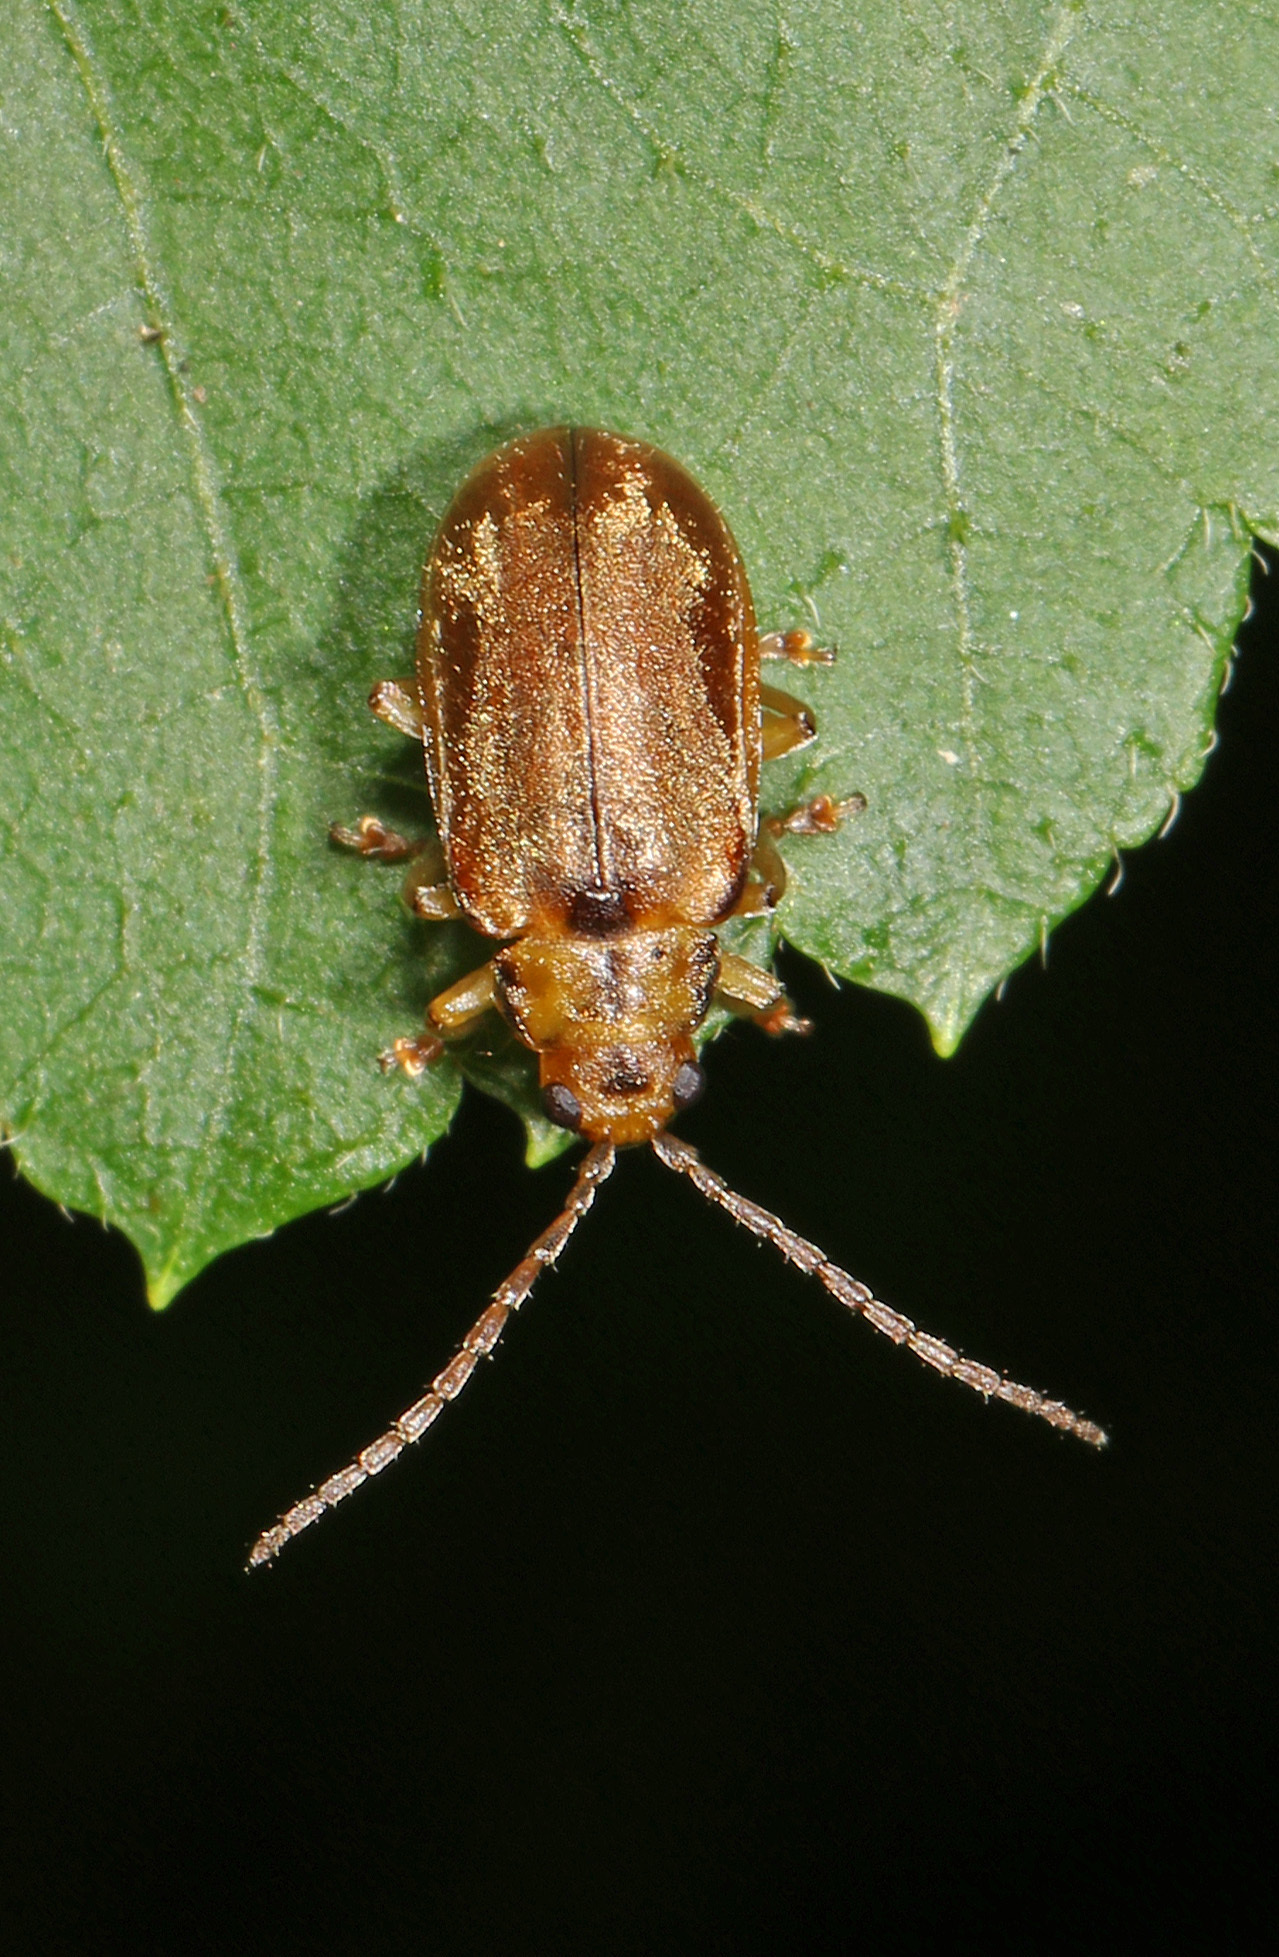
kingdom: Animalia
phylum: Arthropoda
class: Insecta
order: Coleoptera
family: Chrysomelidae
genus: Pyrrhalta
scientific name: Pyrrhalta viburni
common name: Guelder-rose leaf beetle
